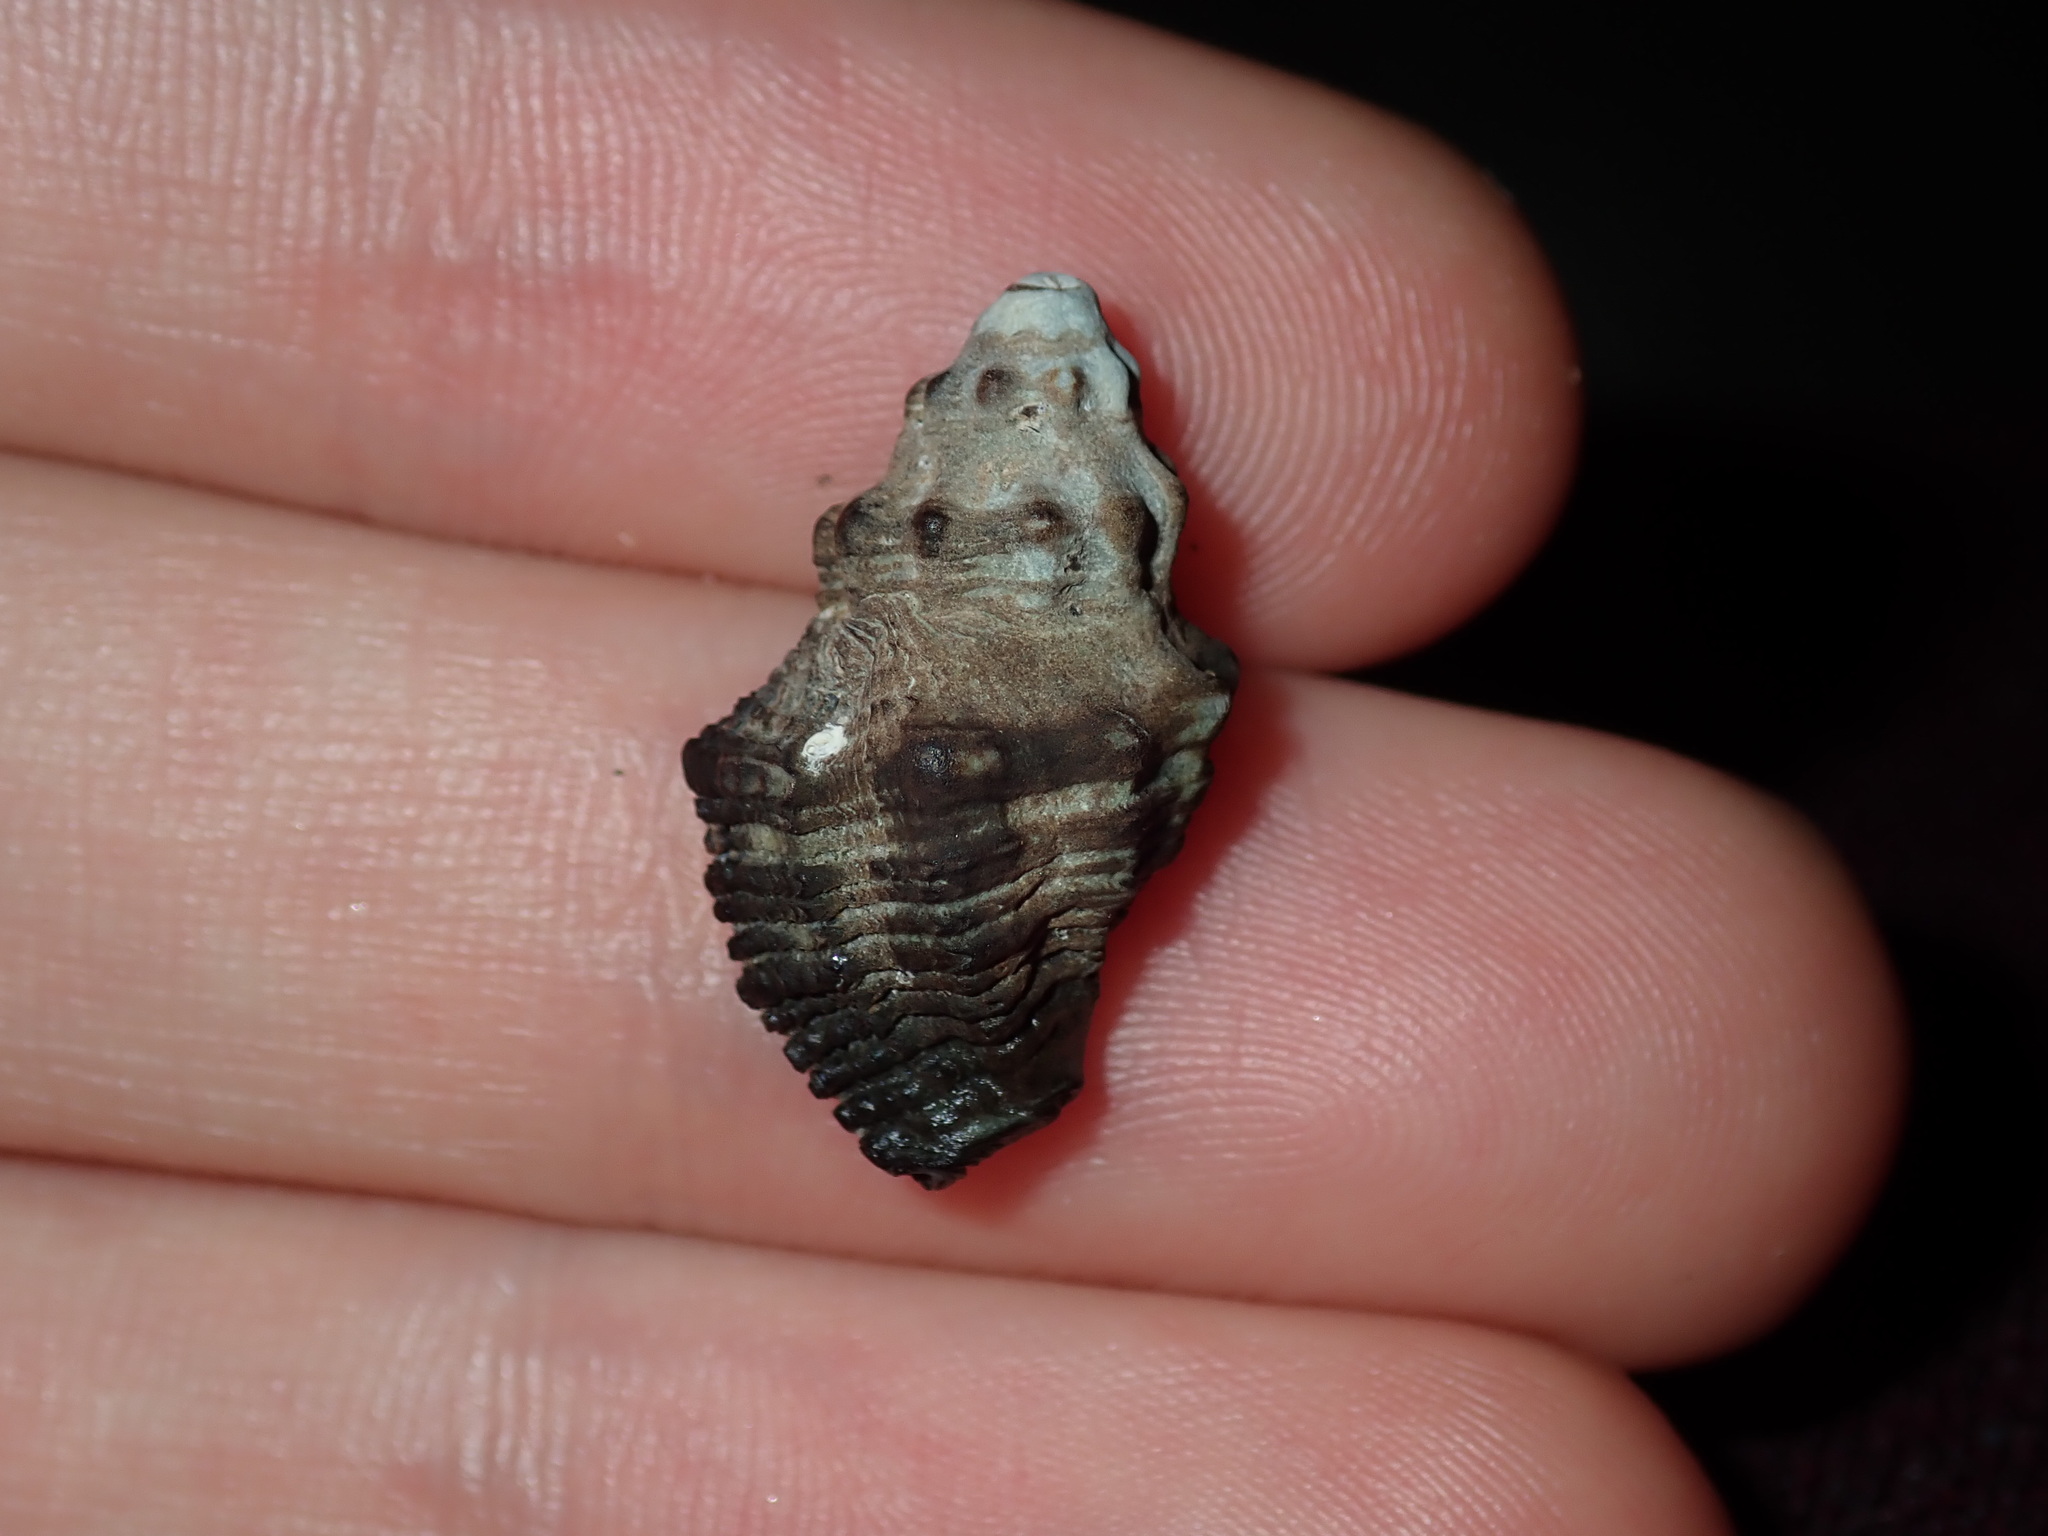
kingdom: Animalia
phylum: Mollusca
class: Gastropoda
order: Neogastropoda
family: Muricidae
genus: Drupella
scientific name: Drupella margariticola
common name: Shouldered castor bean
